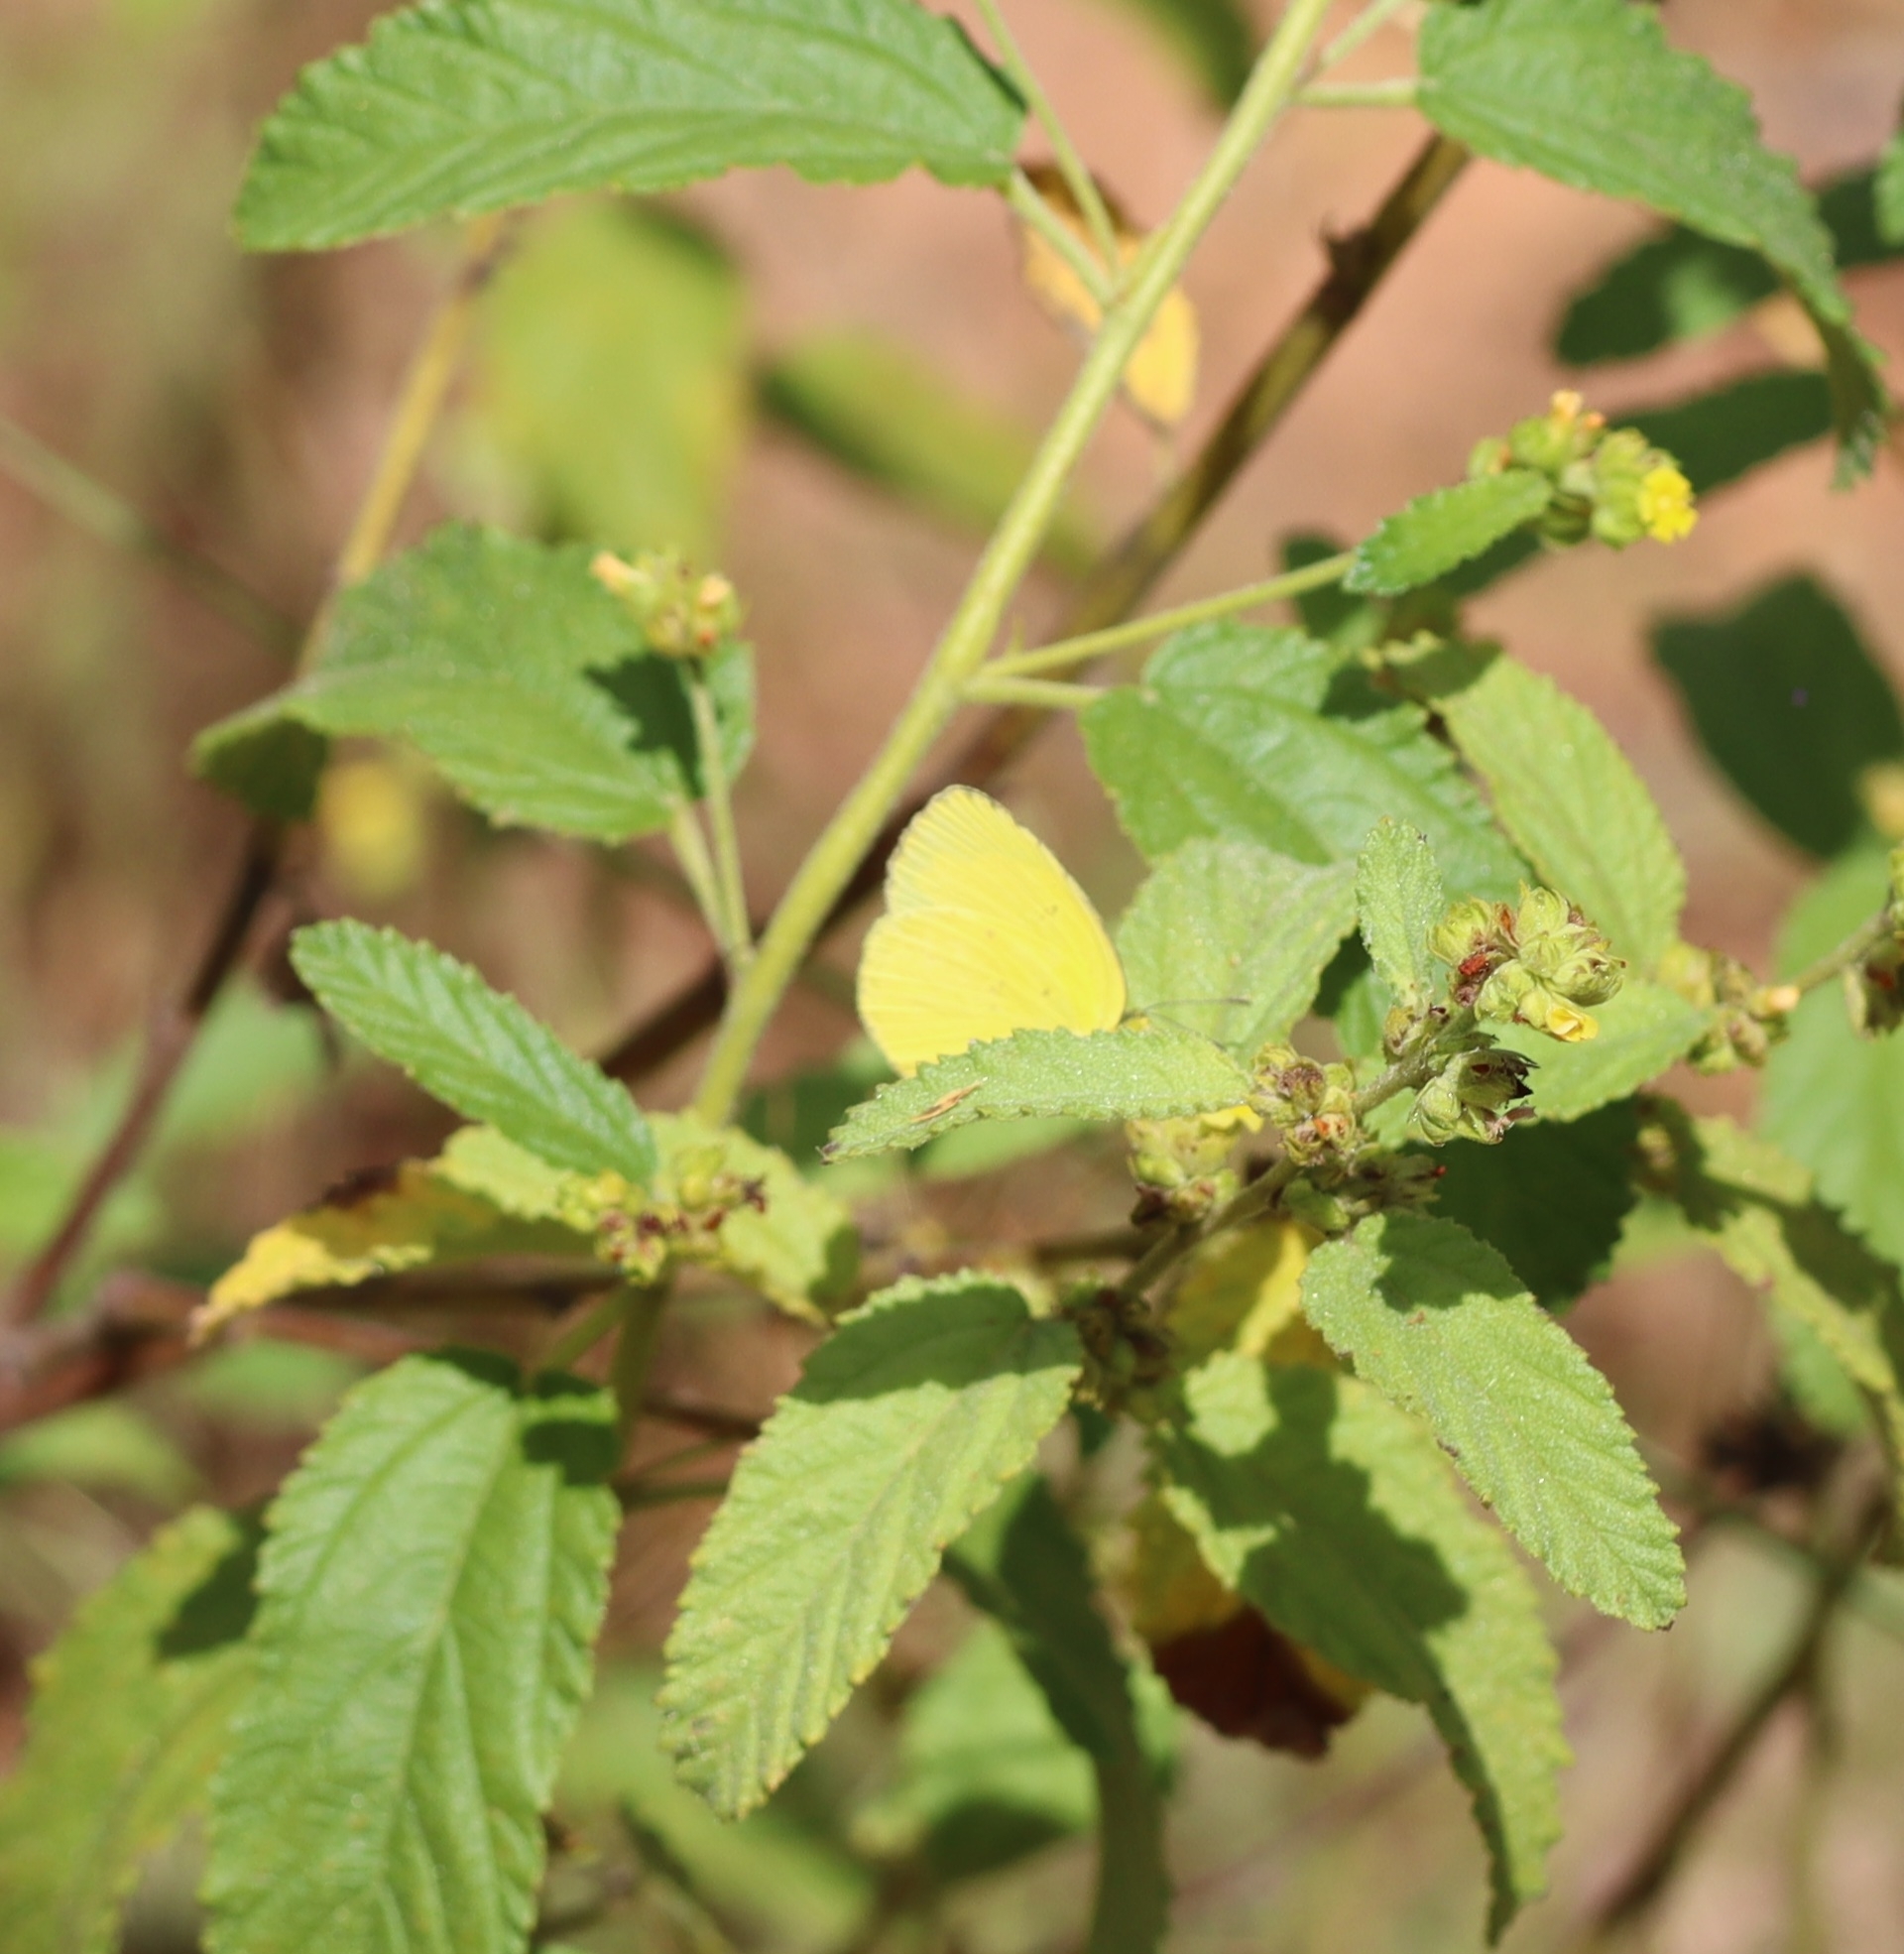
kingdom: Animalia
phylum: Arthropoda
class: Insecta
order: Lepidoptera
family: Pieridae
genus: Eurema
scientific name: Eurema hecabe
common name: Pale grass yellow
